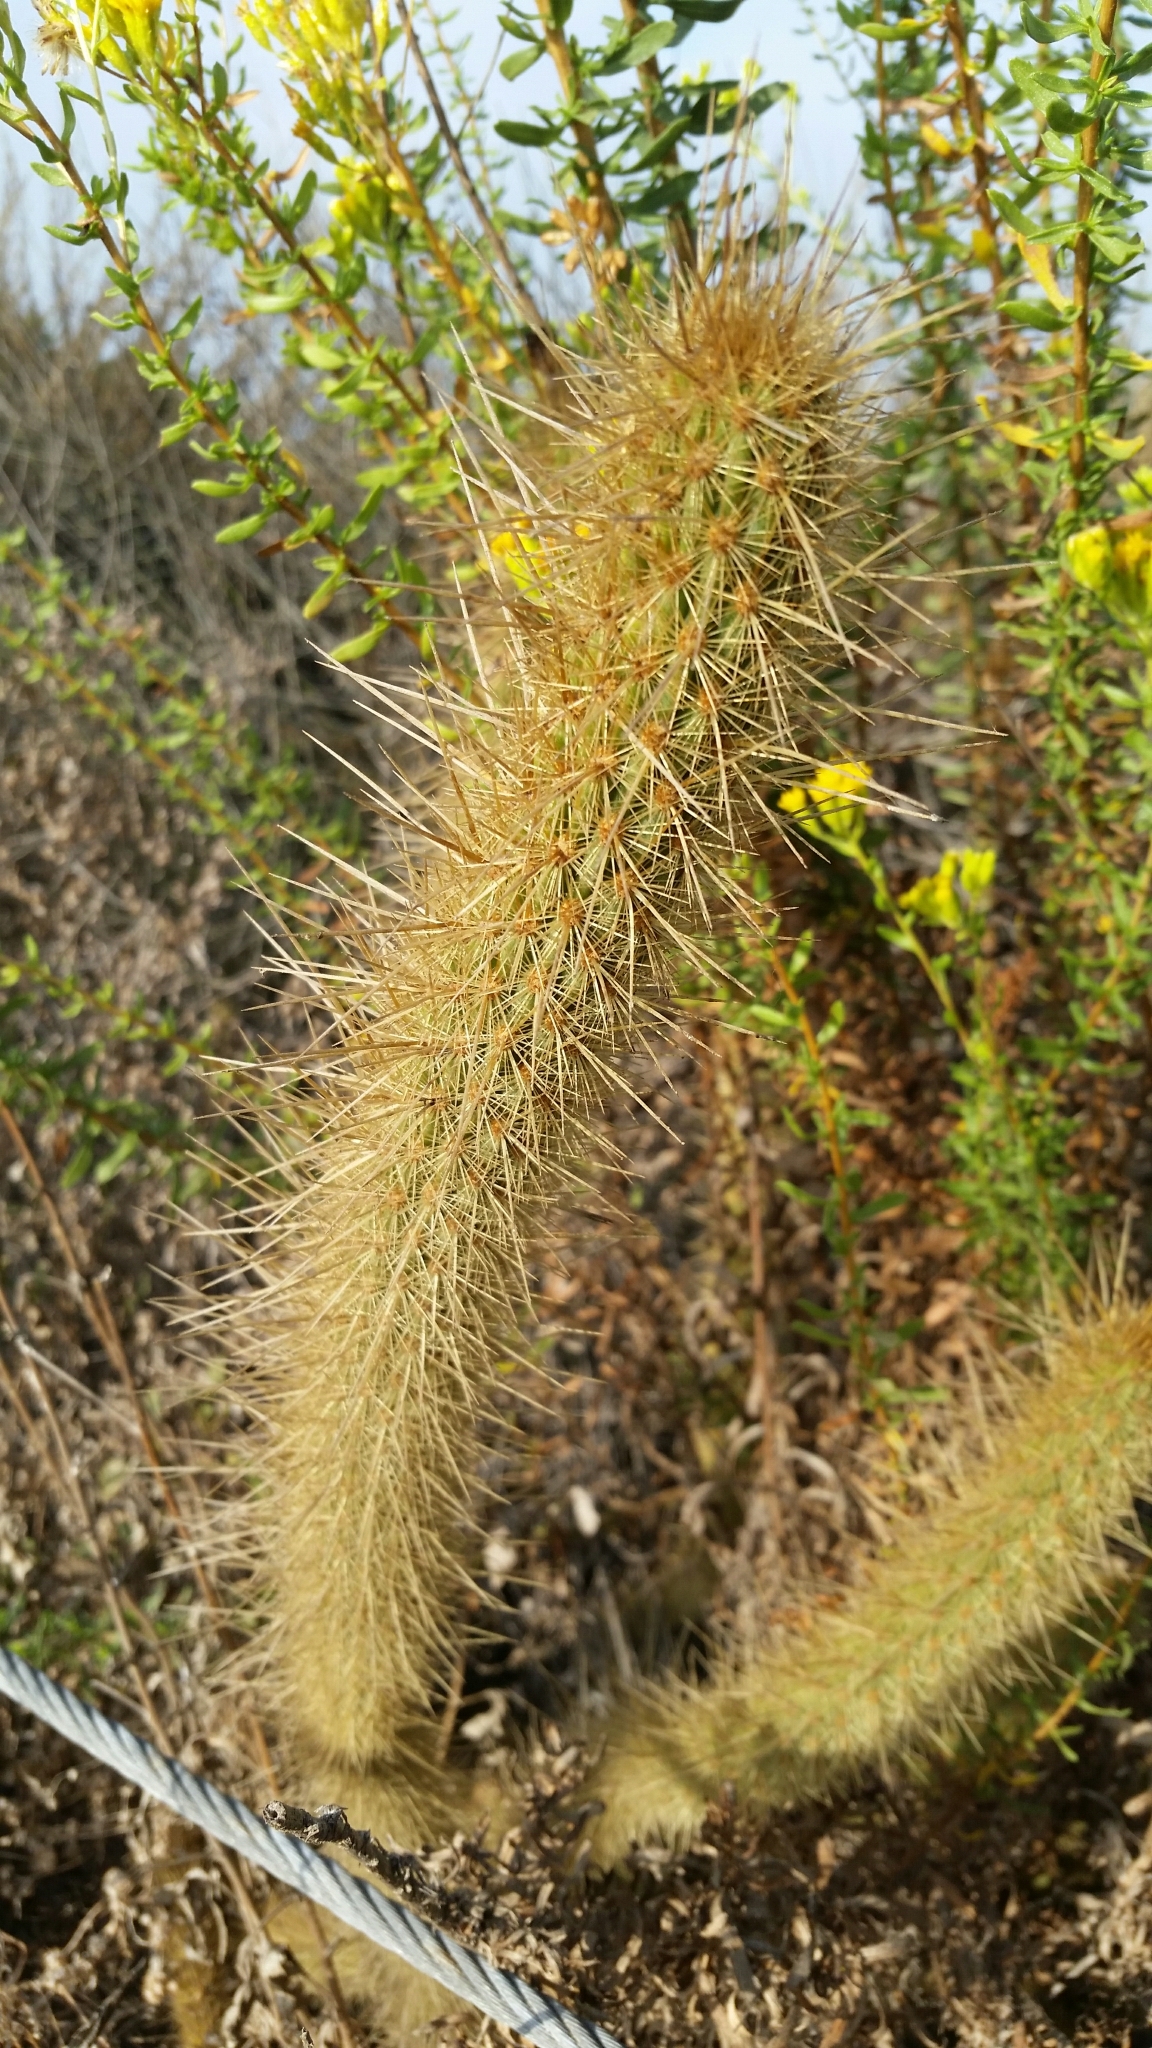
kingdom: Plantae
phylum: Tracheophyta
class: Magnoliopsida
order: Caryophyllales
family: Cactaceae
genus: Bergerocactus
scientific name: Bergerocactus emoryi
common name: Golden snakecactus
